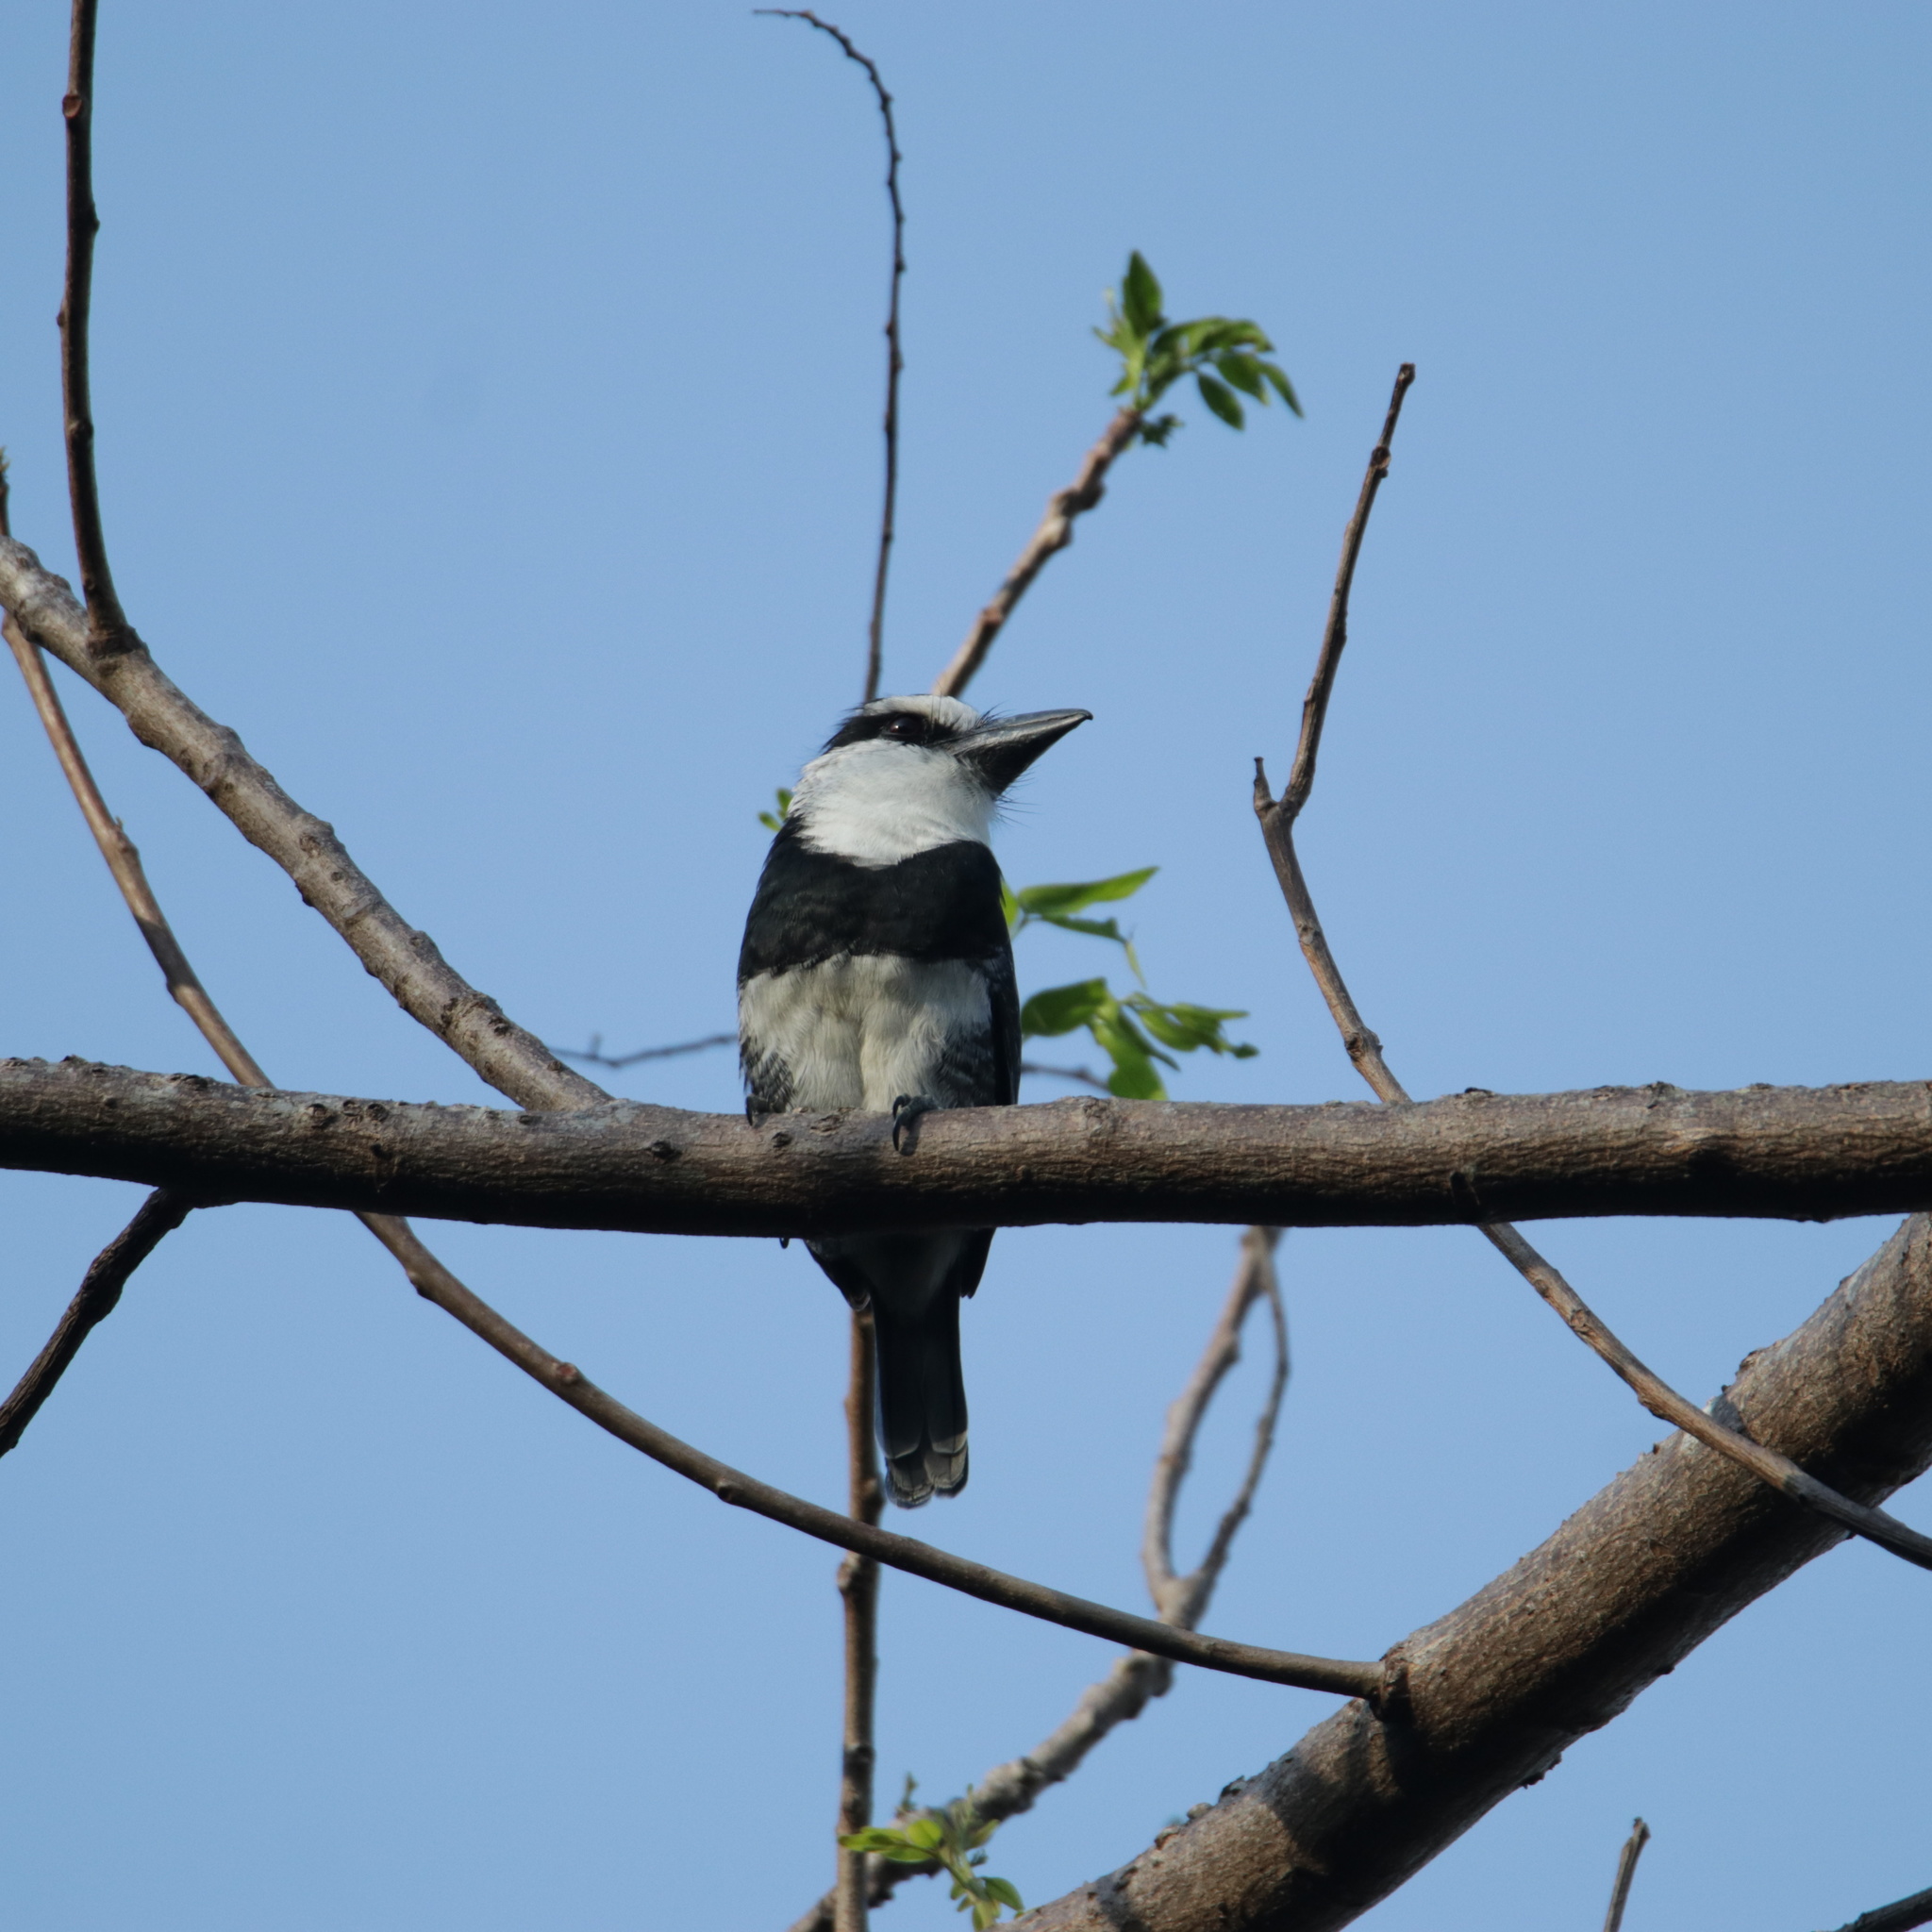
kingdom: Animalia
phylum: Chordata
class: Aves
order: Piciformes
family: Bucconidae
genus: Notharchus
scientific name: Notharchus hyperrhynchus
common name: White-necked puffbird
